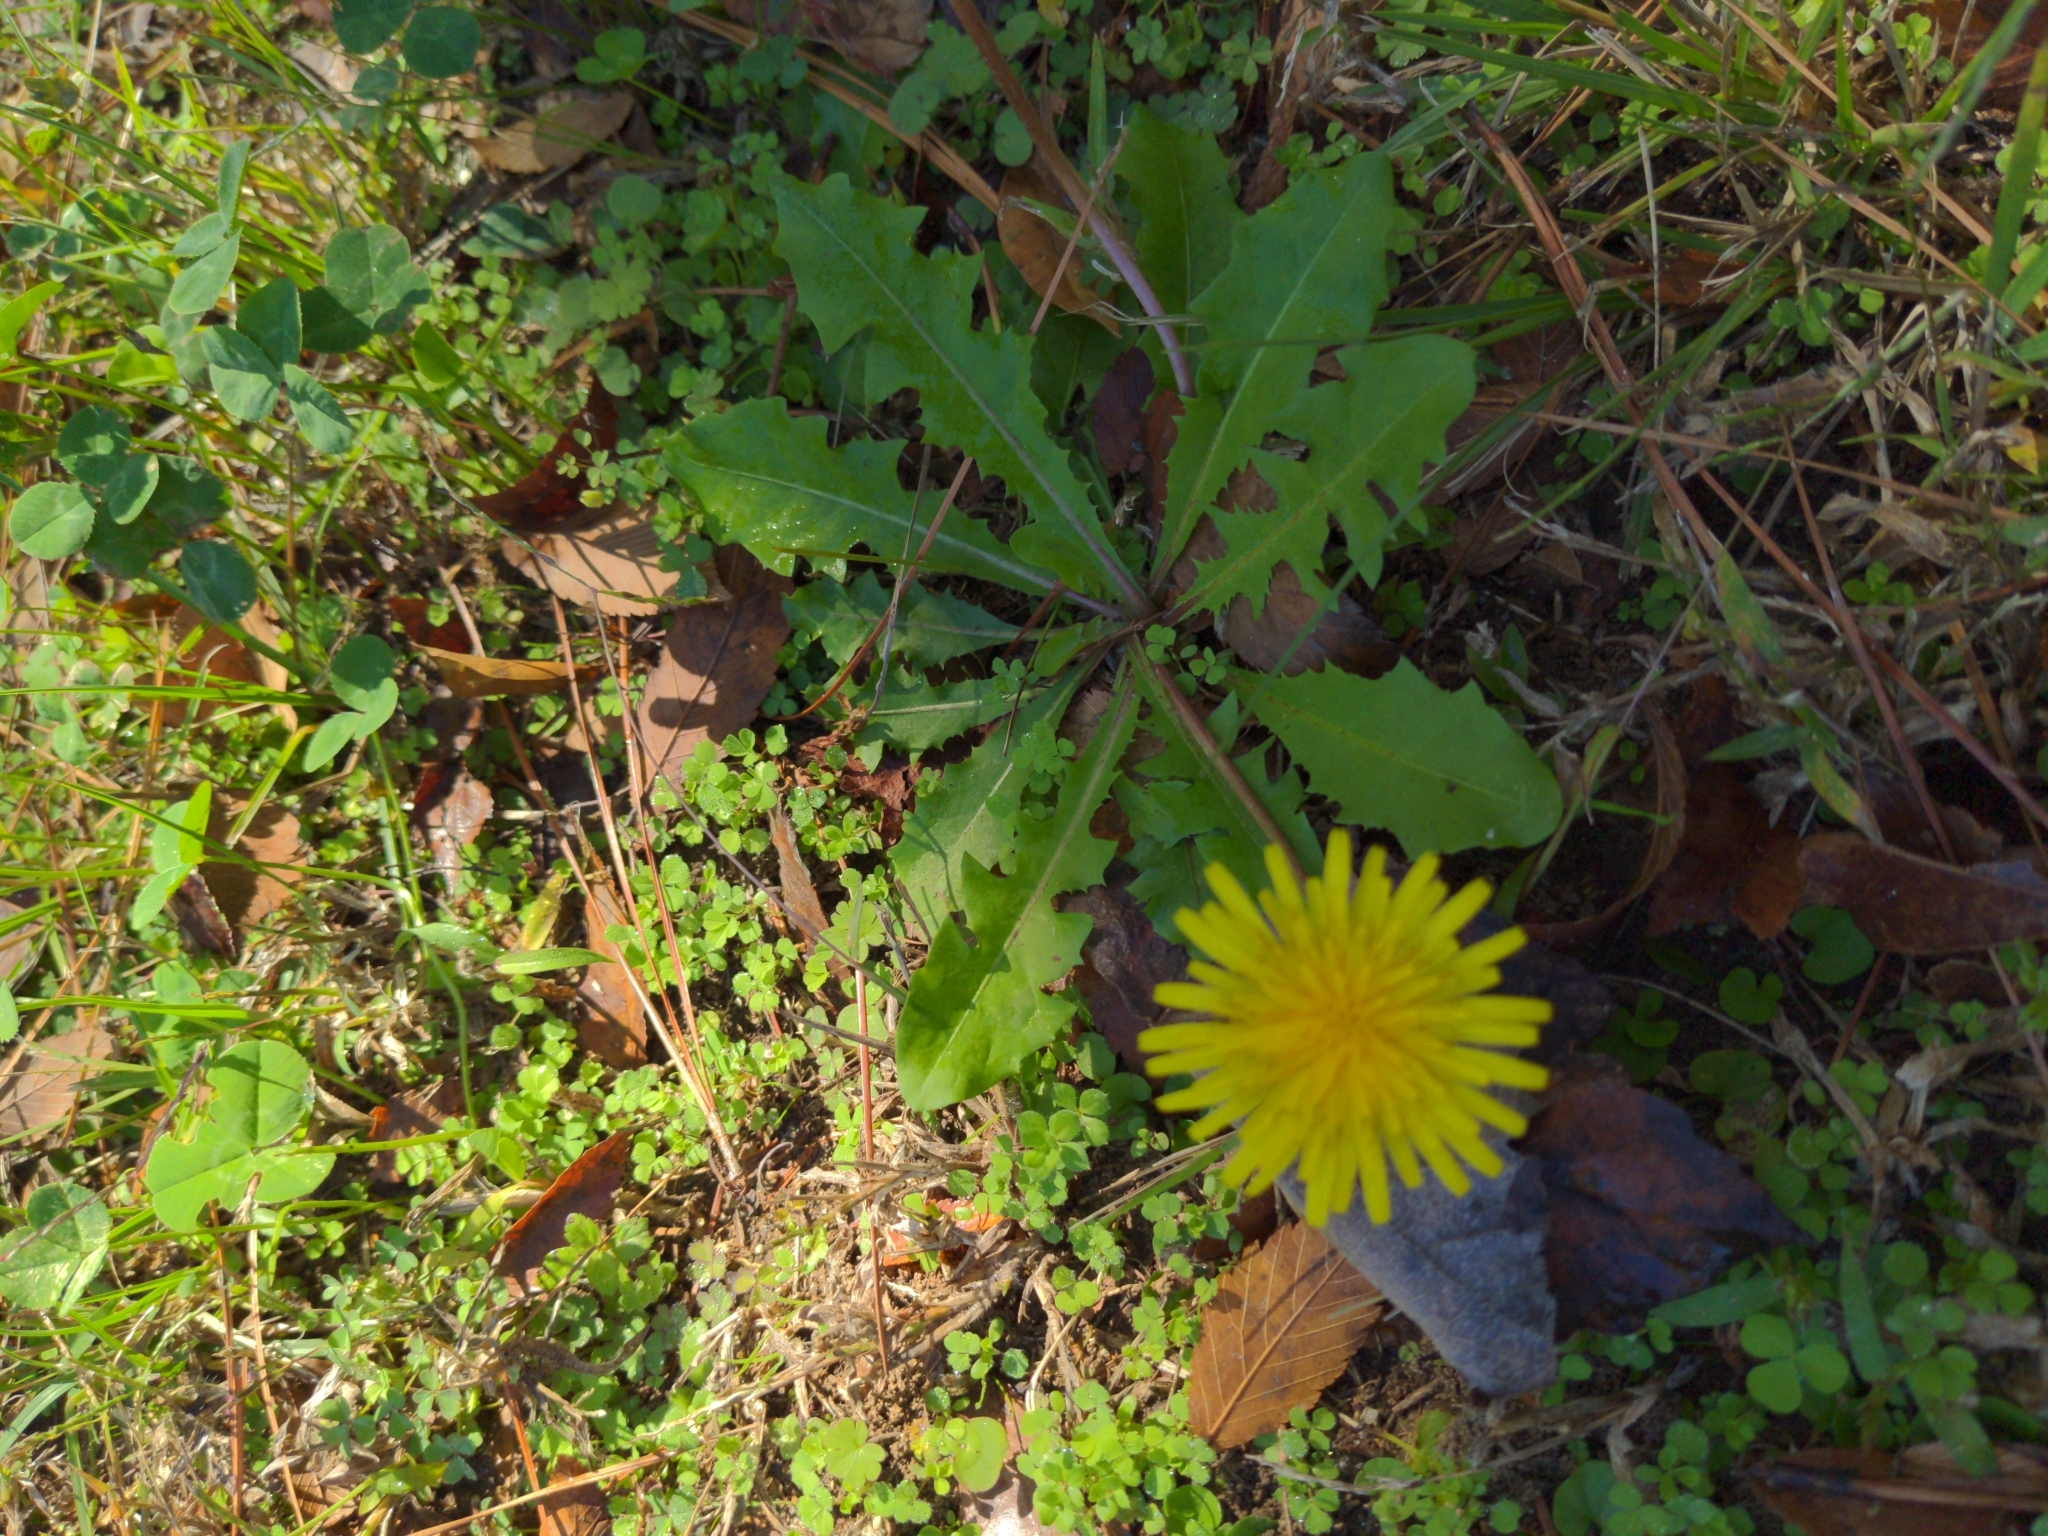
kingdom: Plantae
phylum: Tracheophyta
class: Magnoliopsida
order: Asterales
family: Asteraceae
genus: Taraxacum
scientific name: Taraxacum officinale
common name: Common dandelion
